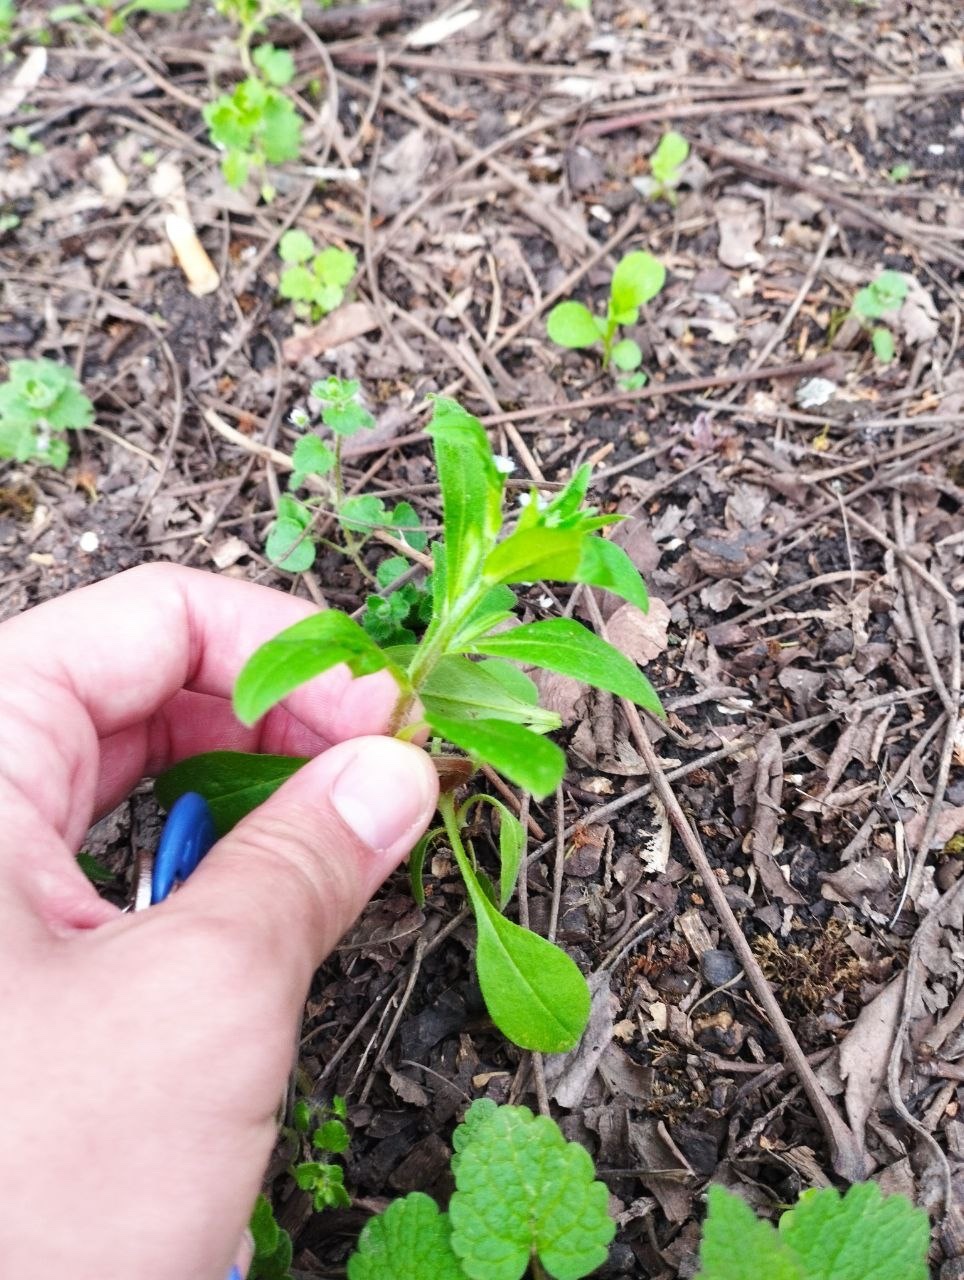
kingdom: Plantae
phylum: Tracheophyta
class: Magnoliopsida
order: Boraginales
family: Boraginaceae
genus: Myosotis
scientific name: Myosotis sparsiflora
